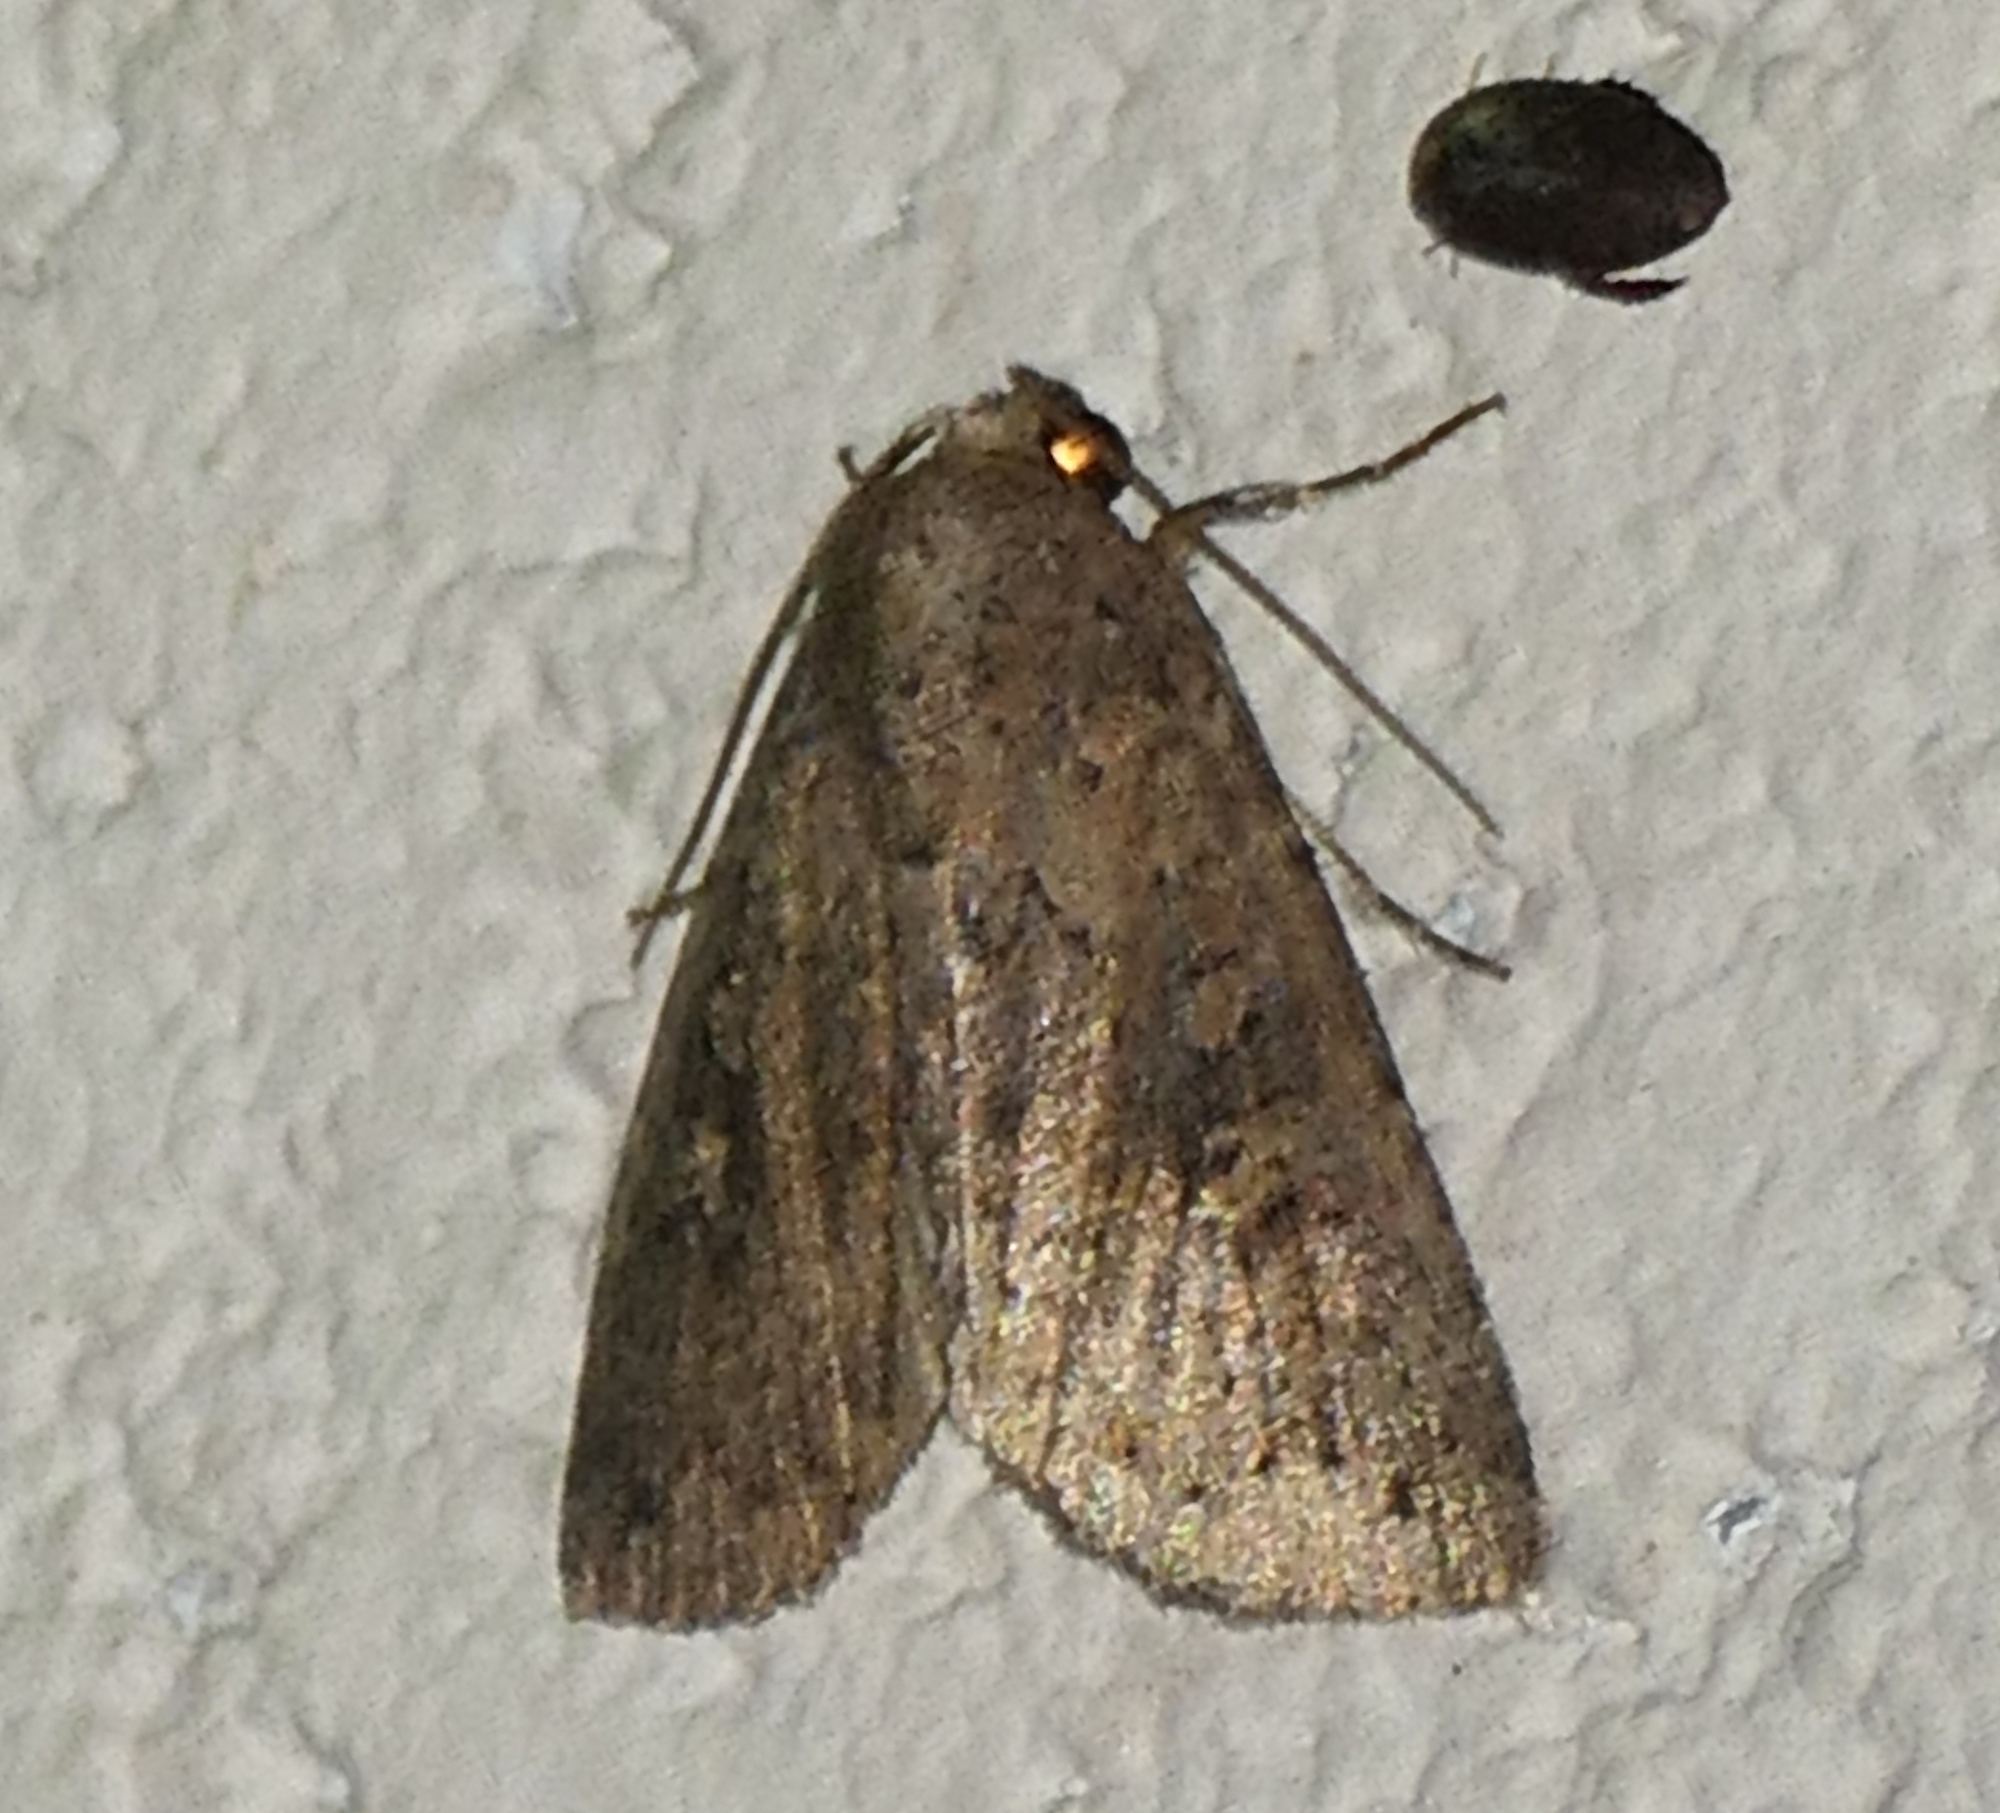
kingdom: Animalia
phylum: Arthropoda
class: Insecta
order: Lepidoptera
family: Noctuidae
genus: Condica
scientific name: Condica sutor
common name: Cobbler moth
